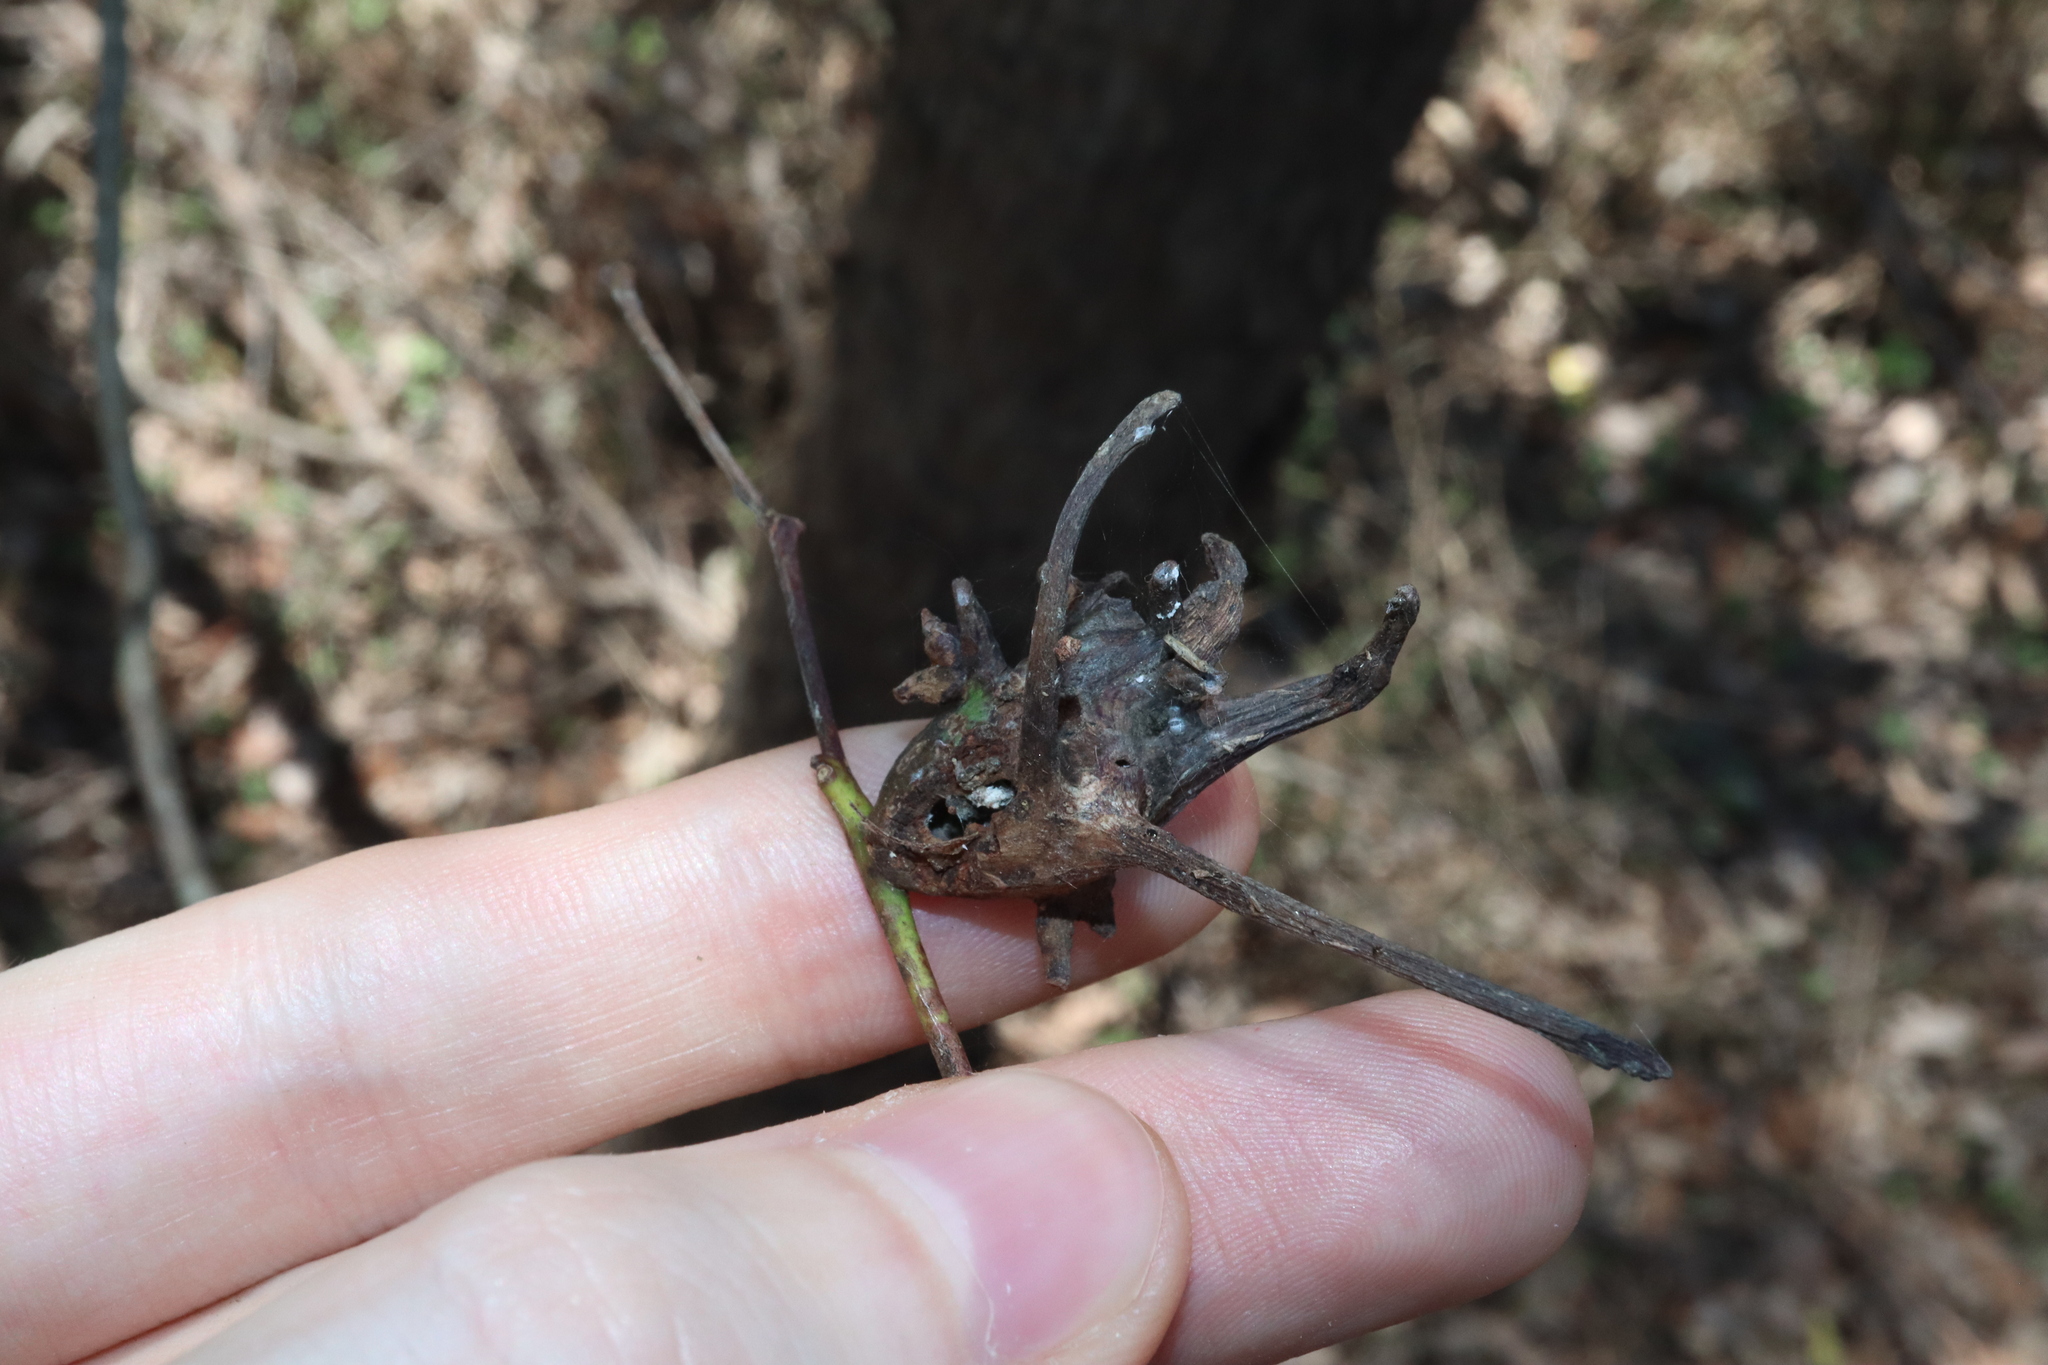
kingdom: Animalia
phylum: Arthropoda
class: Insecta
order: Hemiptera
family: Eriococcidae
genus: Apiomorpha
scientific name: Apiomorpha munita
